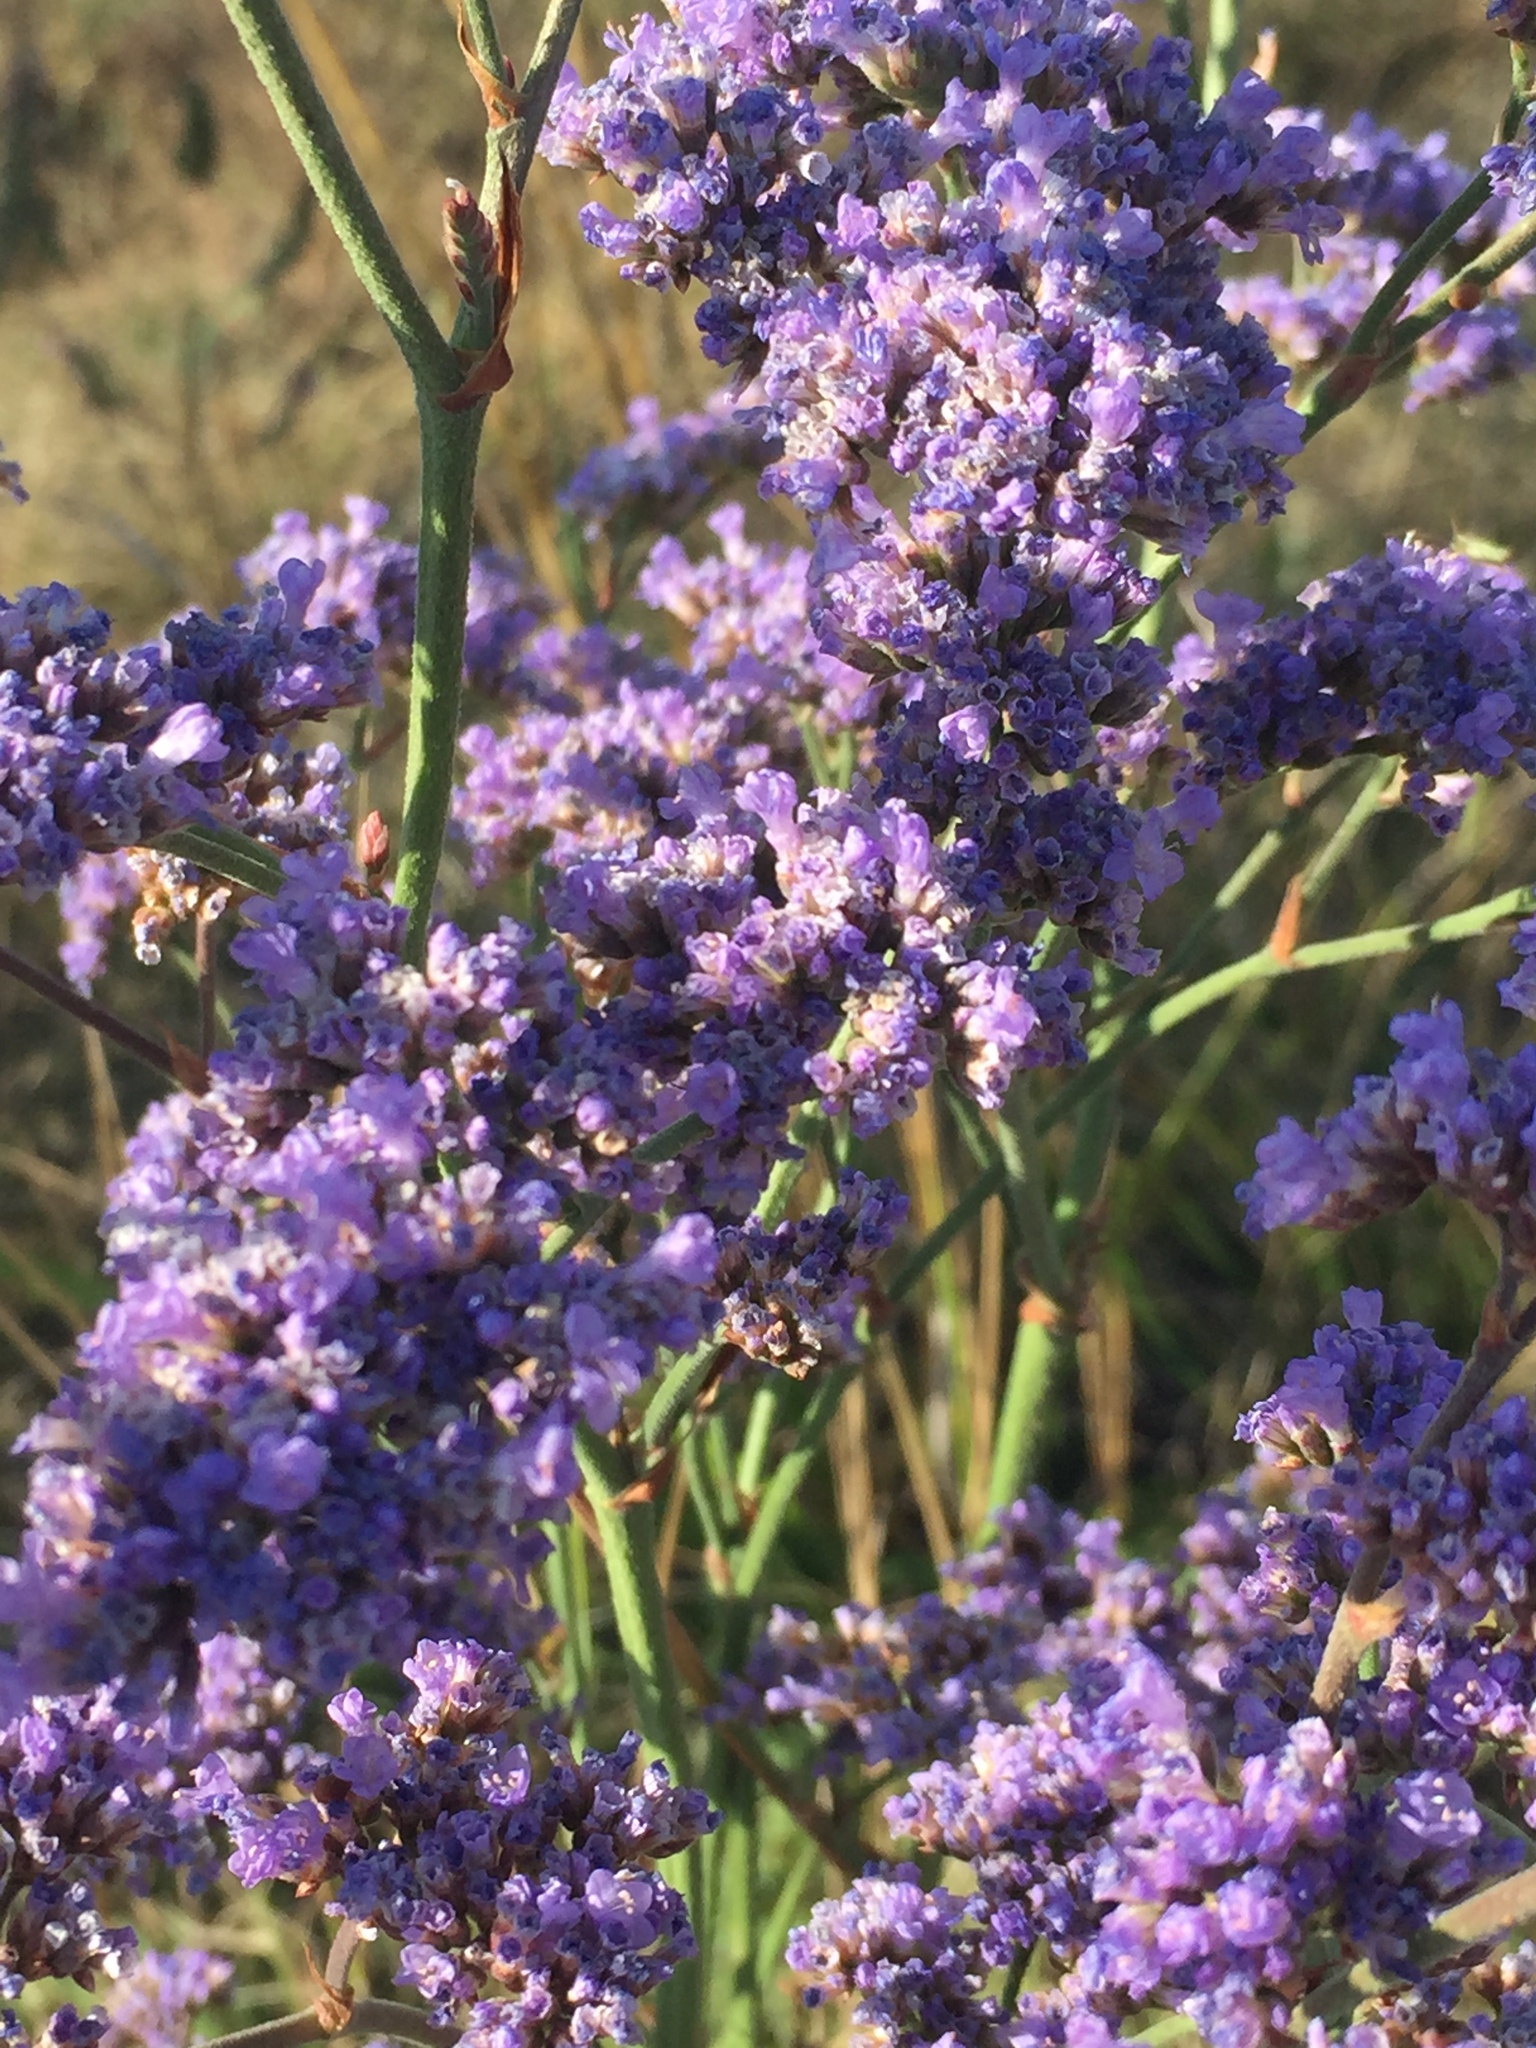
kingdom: Plantae
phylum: Tracheophyta
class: Magnoliopsida
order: Caryophyllales
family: Plumbaginaceae
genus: Limonium
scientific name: Limonium tomentellum
